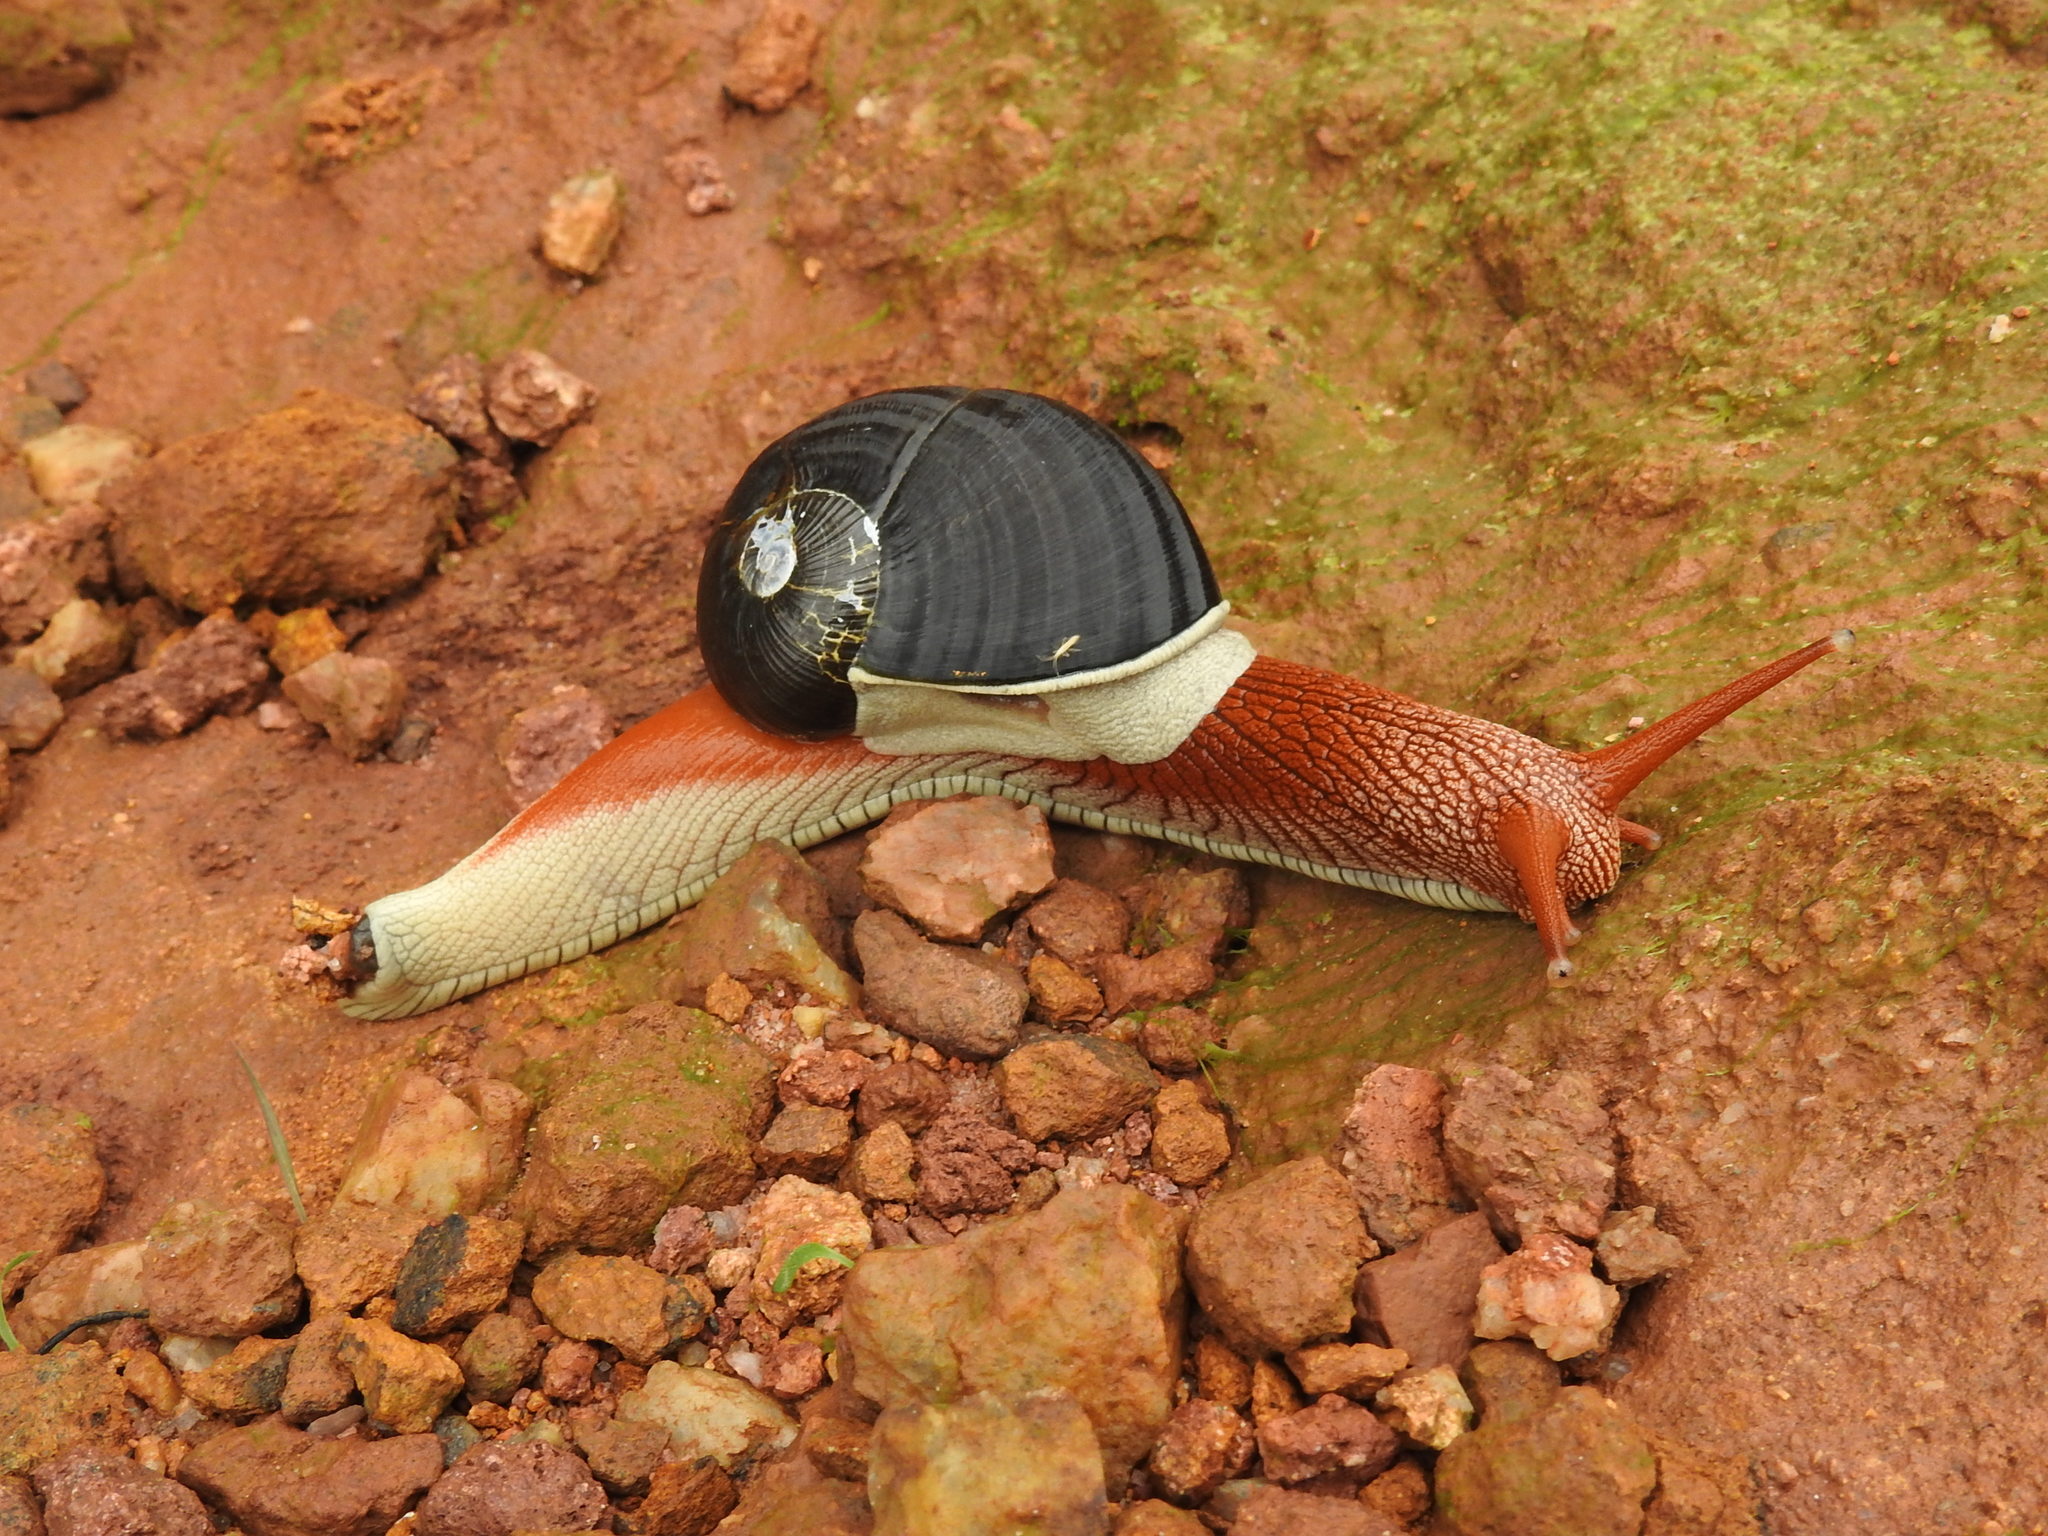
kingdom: Animalia
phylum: Mollusca
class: Gastropoda
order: Stylommatophora
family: Ariophantidae
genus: Indrella
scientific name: Indrella ampulla
